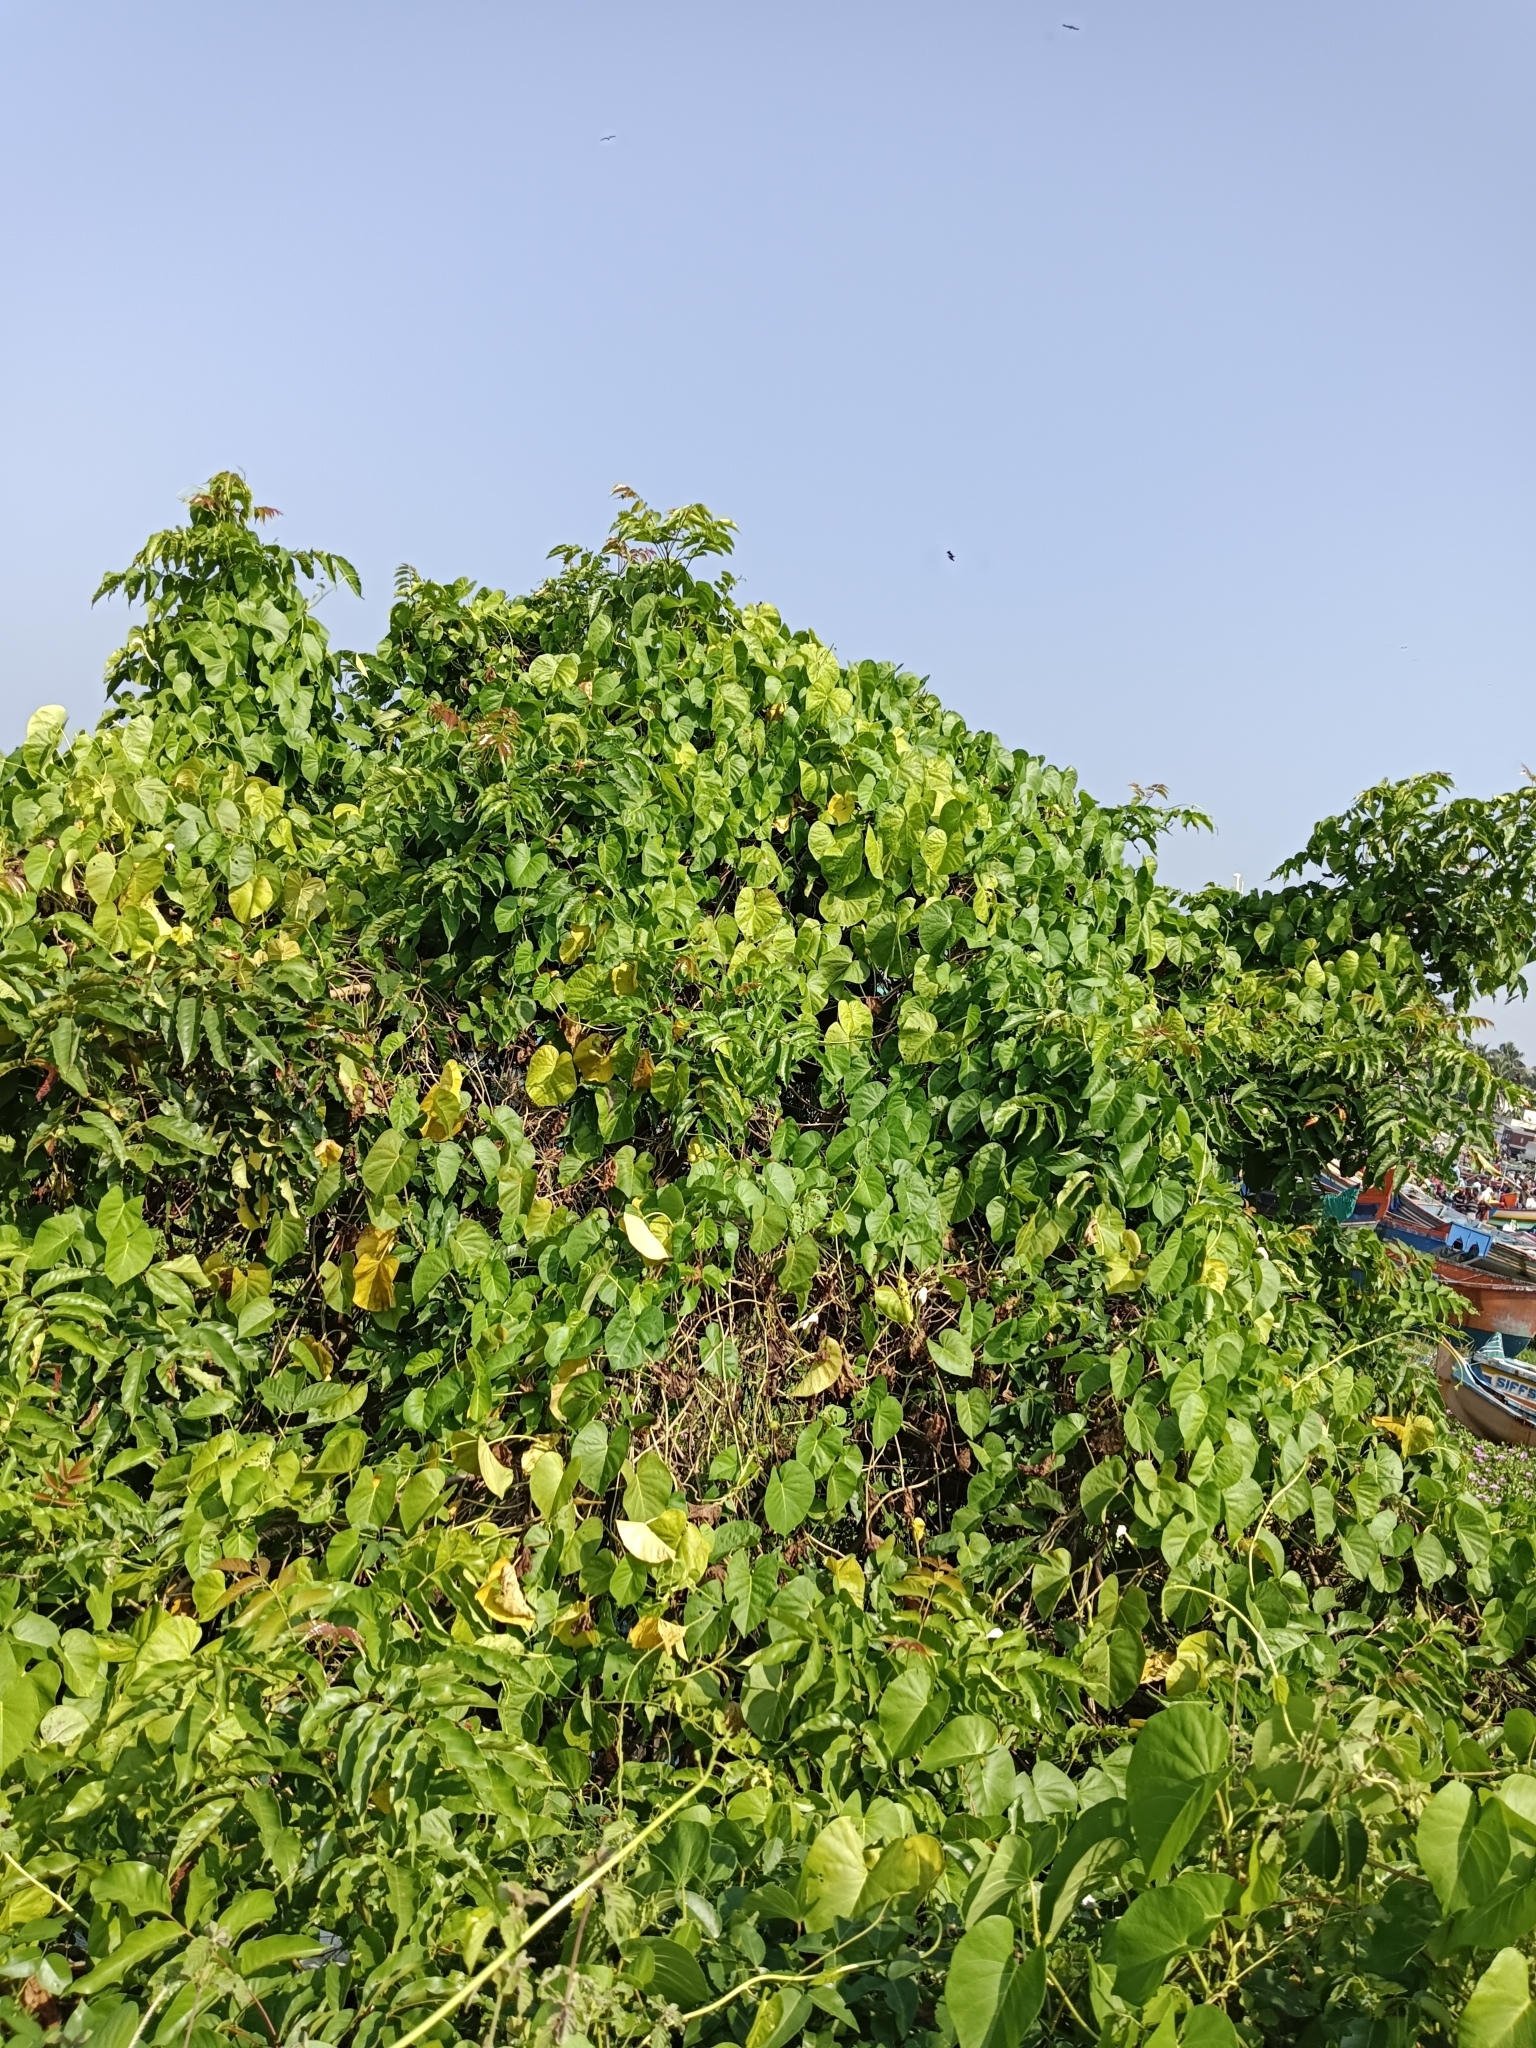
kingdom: Plantae
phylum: Tracheophyta
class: Magnoliopsida
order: Solanales
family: Convolvulaceae
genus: Ipomoea
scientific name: Ipomoea violacea
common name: Beach moonflower
